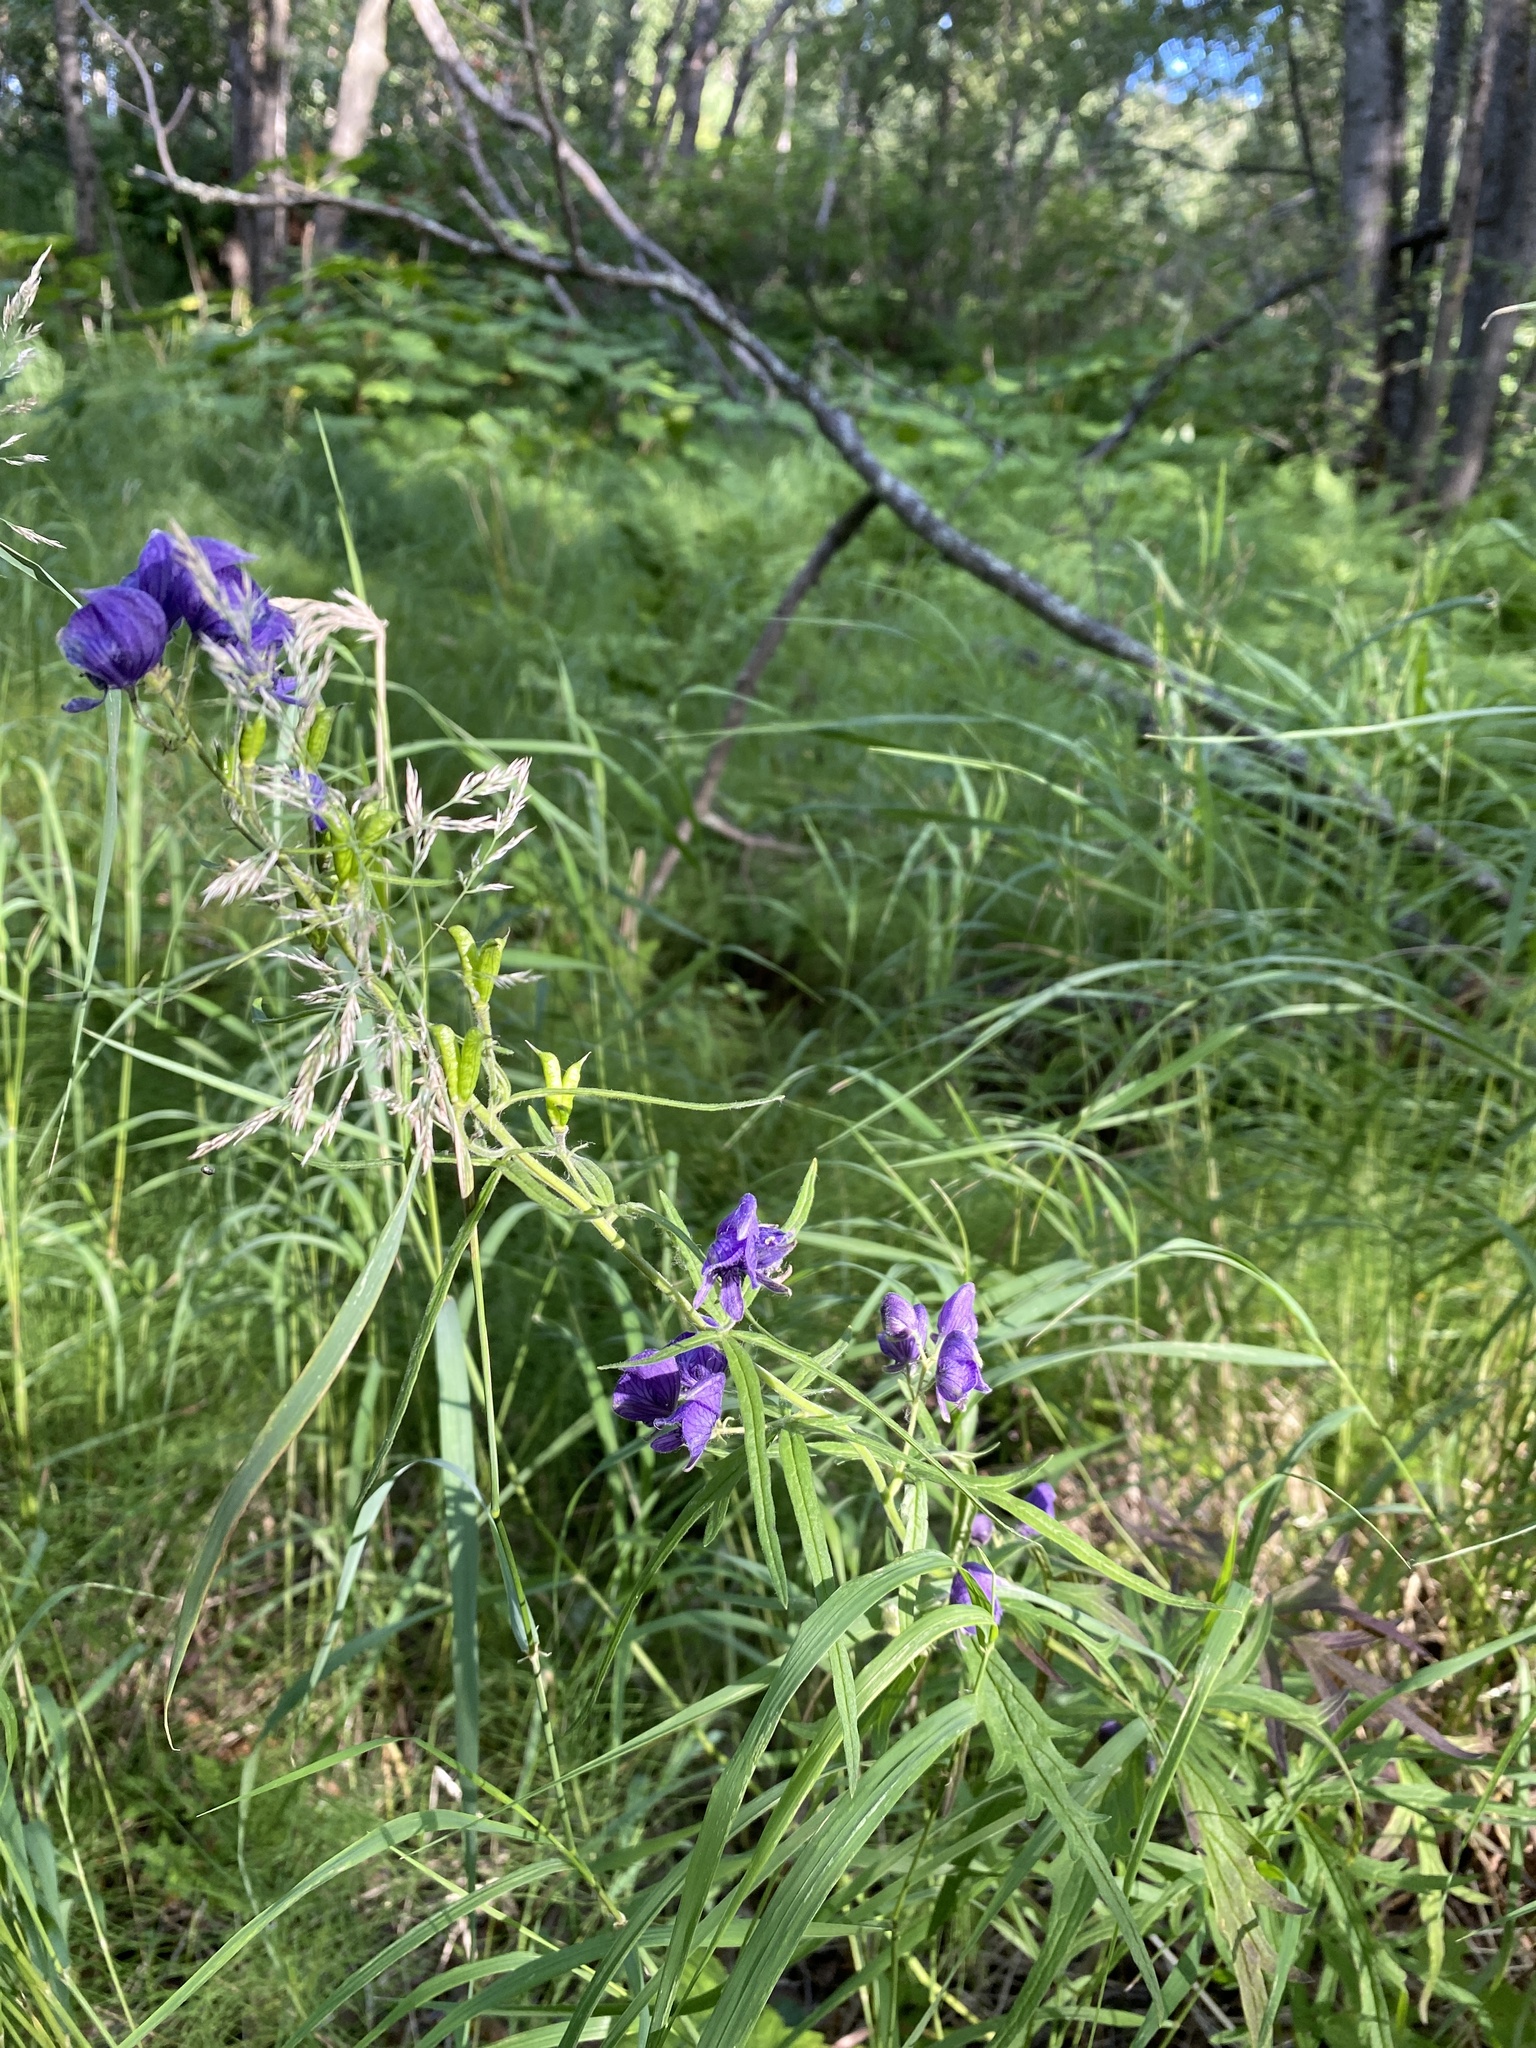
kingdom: Plantae
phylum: Tracheophyta
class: Magnoliopsida
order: Ranunculales
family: Ranunculaceae
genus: Aconitum
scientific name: Aconitum delphiniifolium
